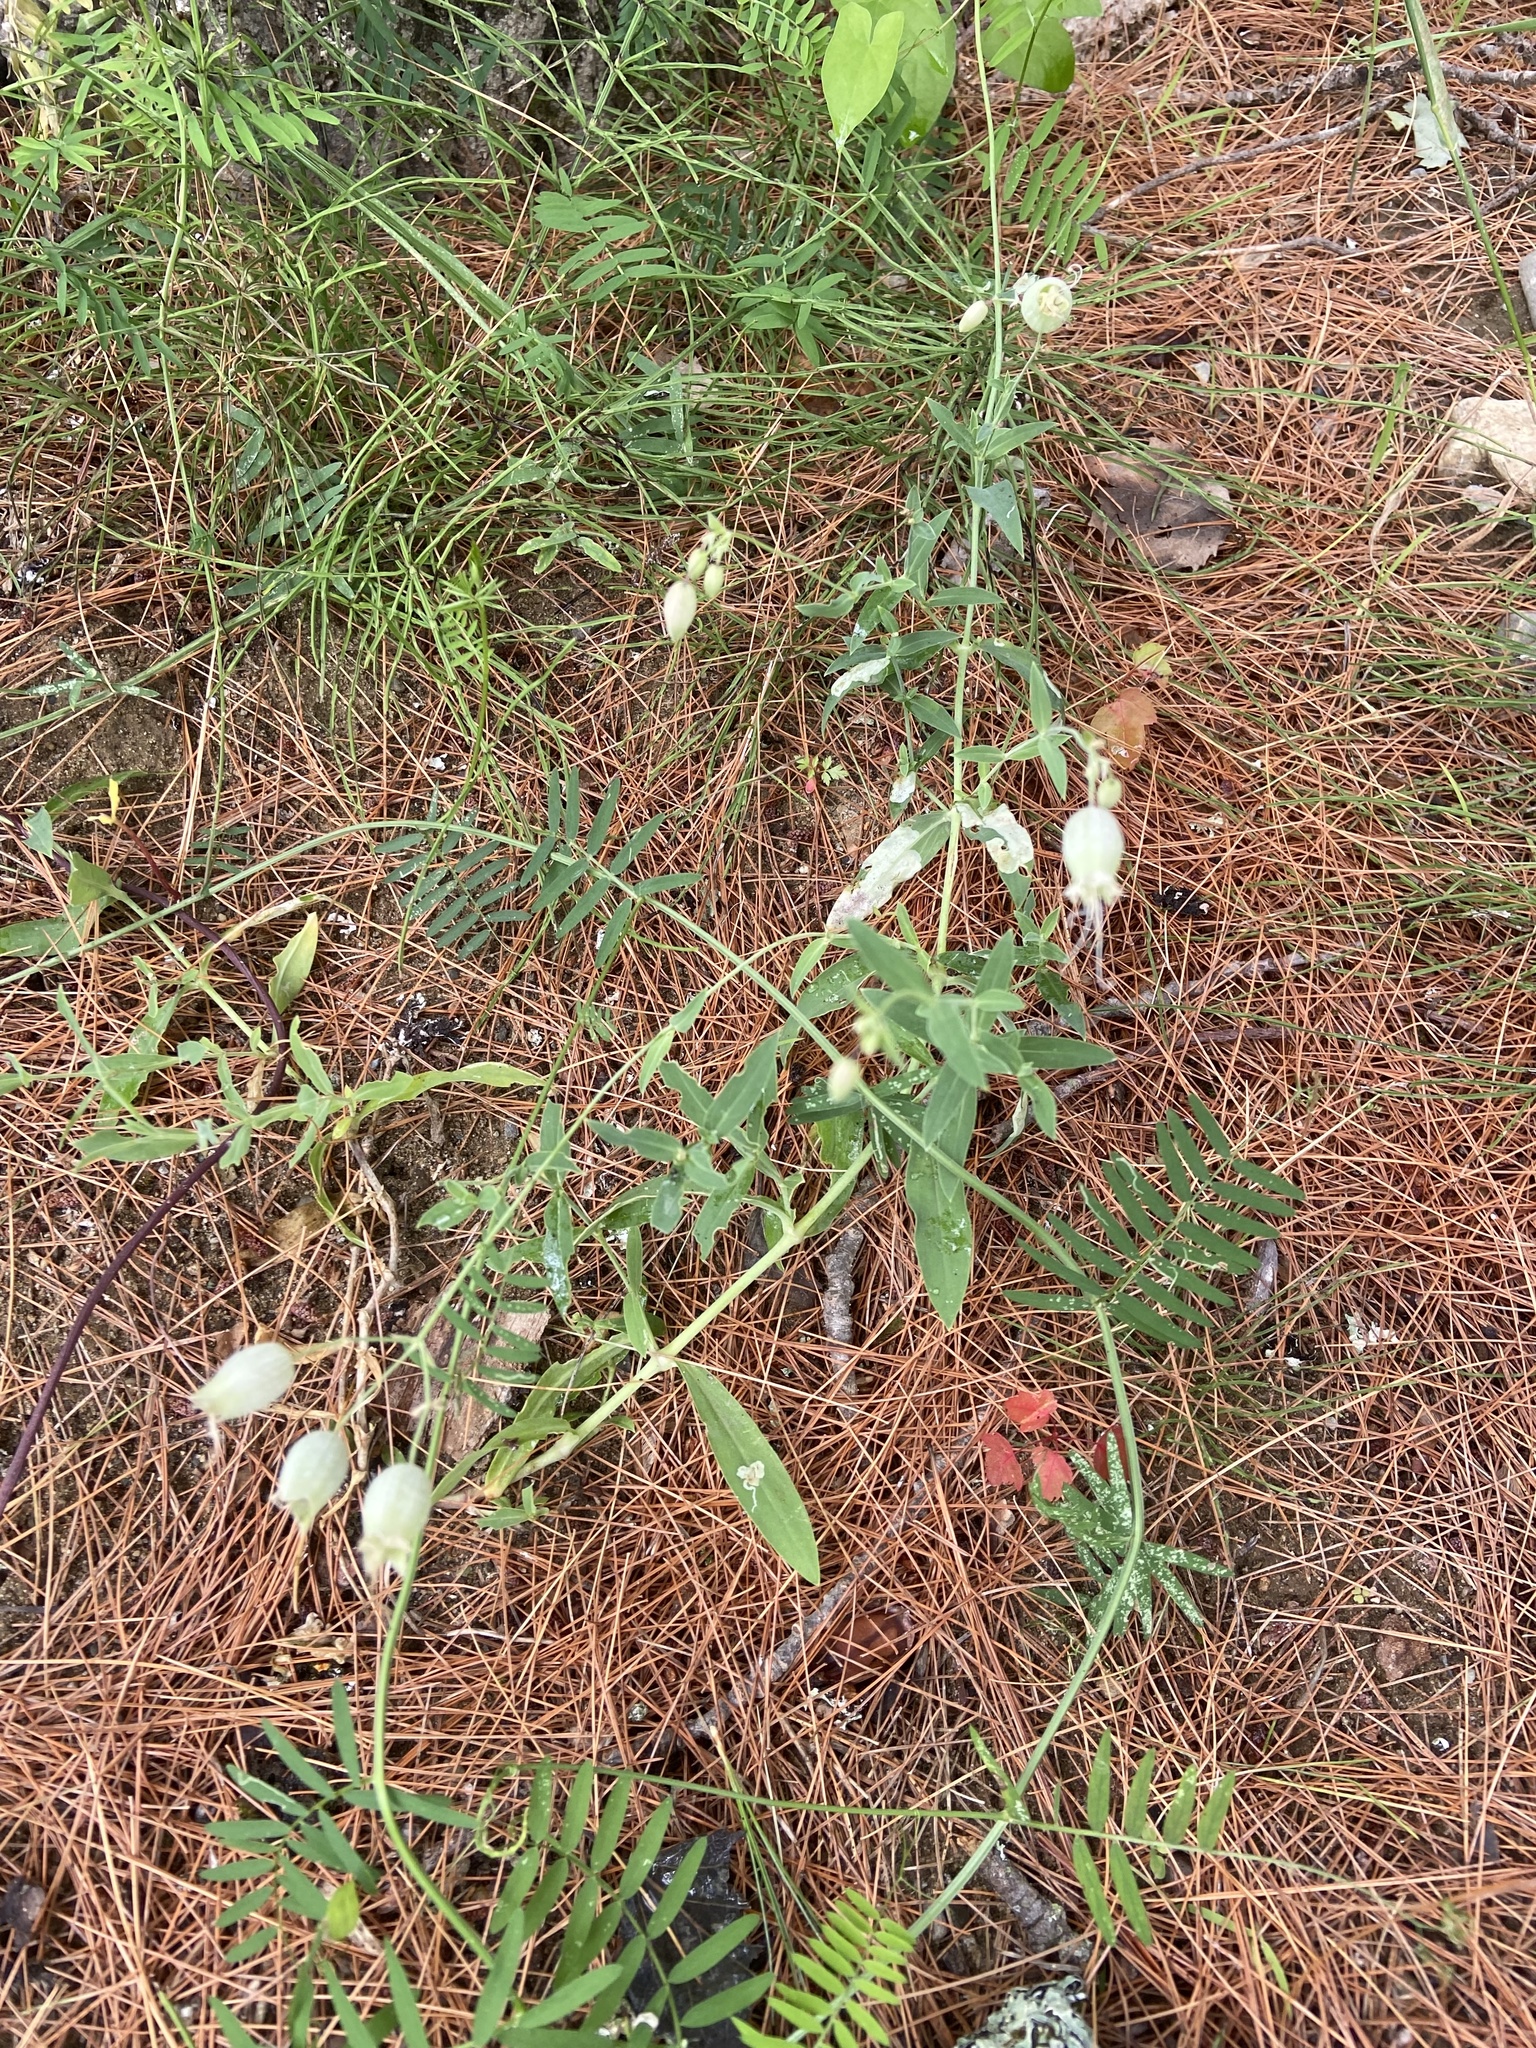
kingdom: Plantae
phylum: Tracheophyta
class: Magnoliopsida
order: Caryophyllales
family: Caryophyllaceae
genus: Silene
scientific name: Silene vulgaris
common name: Bladder campion
